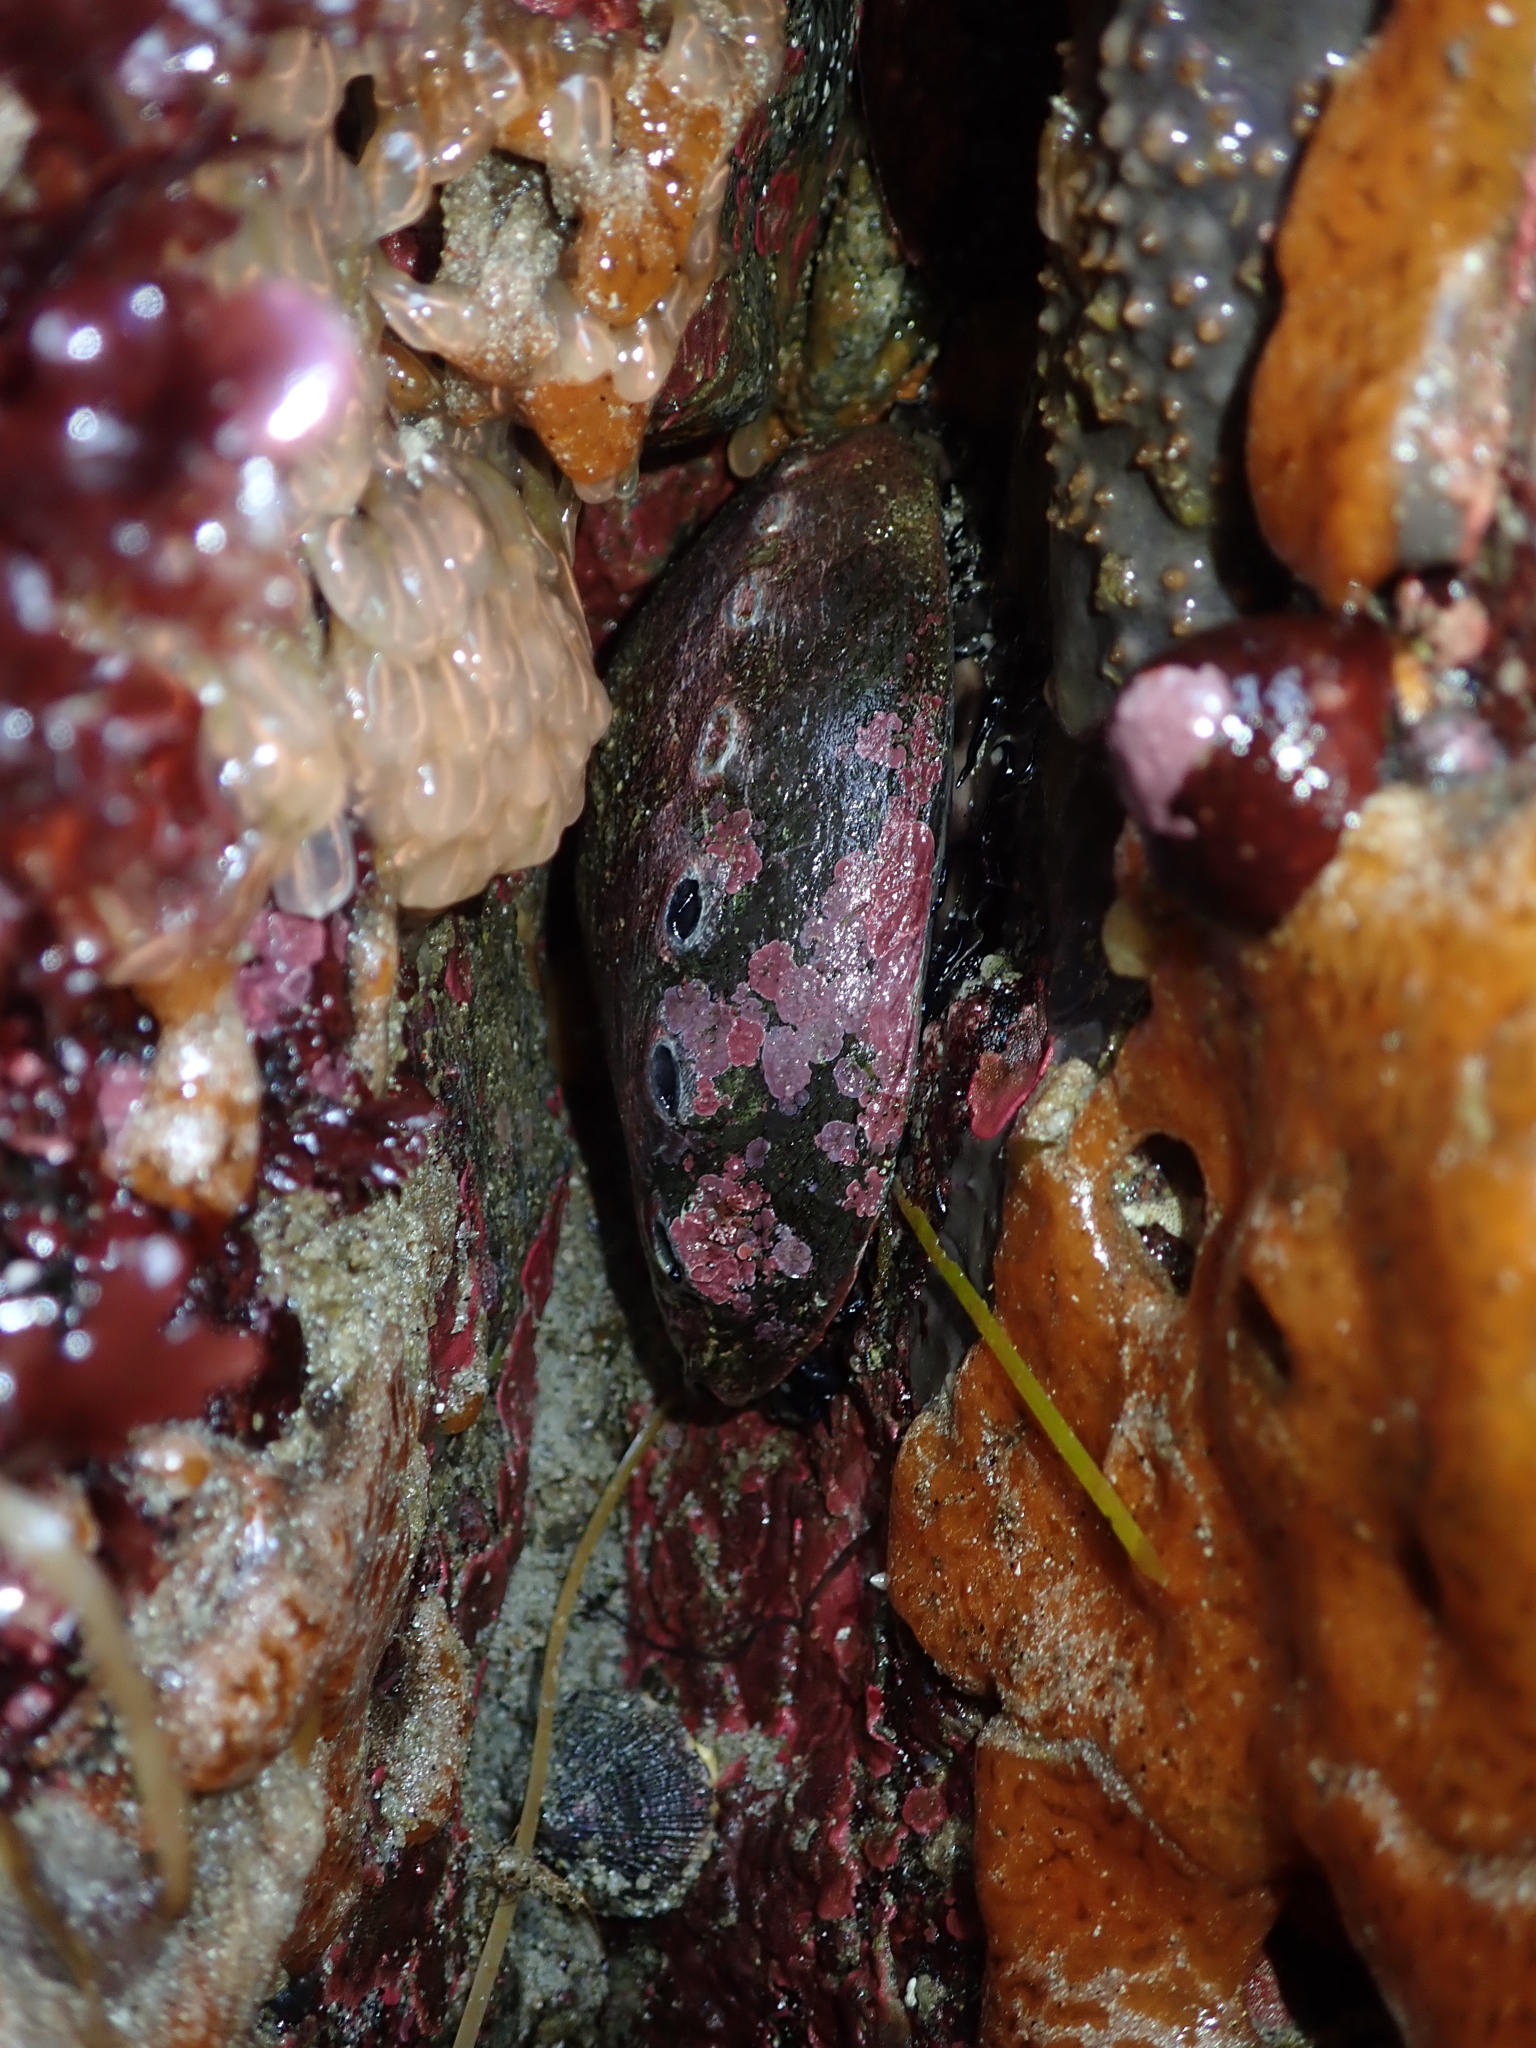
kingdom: Animalia
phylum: Mollusca
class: Gastropoda
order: Lepetellida
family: Haliotidae
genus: Haliotis
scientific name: Haliotis cracherodii
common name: Black abalone
